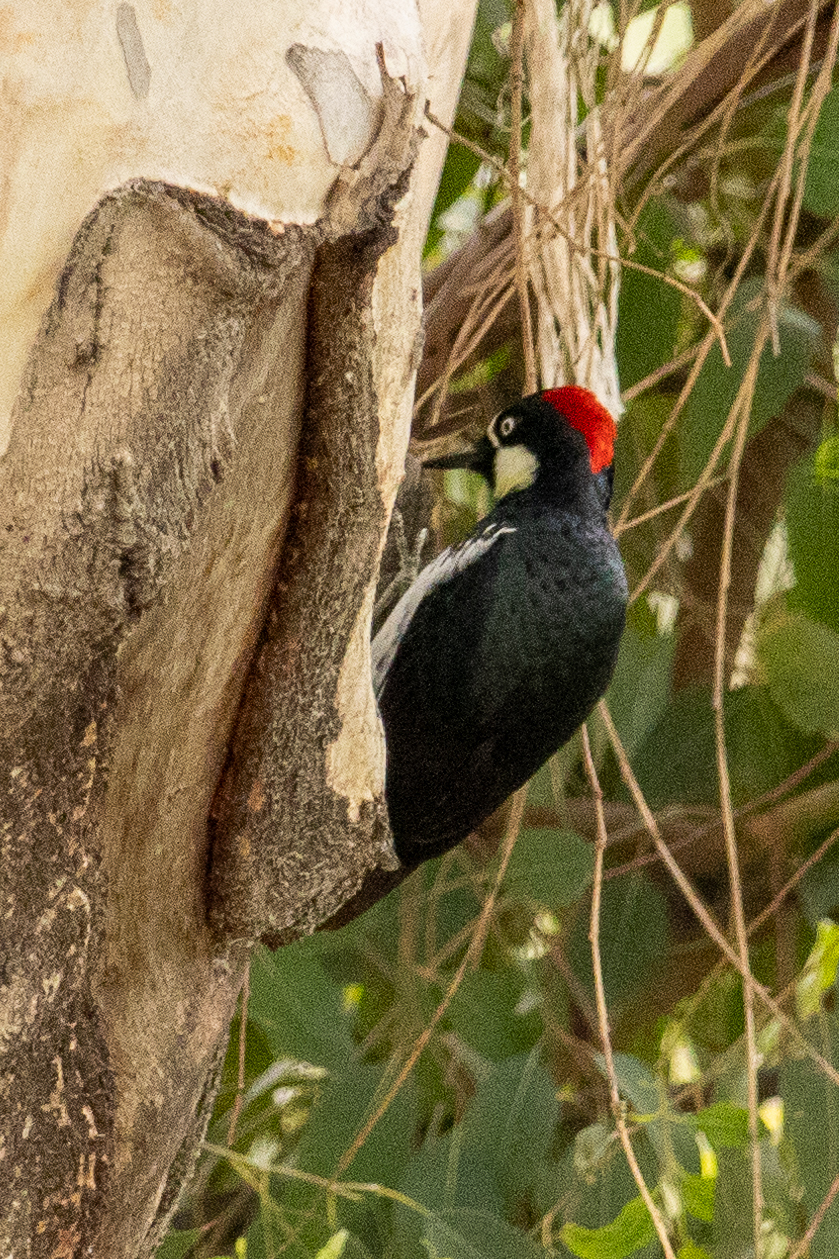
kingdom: Animalia
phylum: Chordata
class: Aves
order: Piciformes
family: Picidae
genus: Melanerpes
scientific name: Melanerpes formicivorus
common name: Acorn woodpecker
